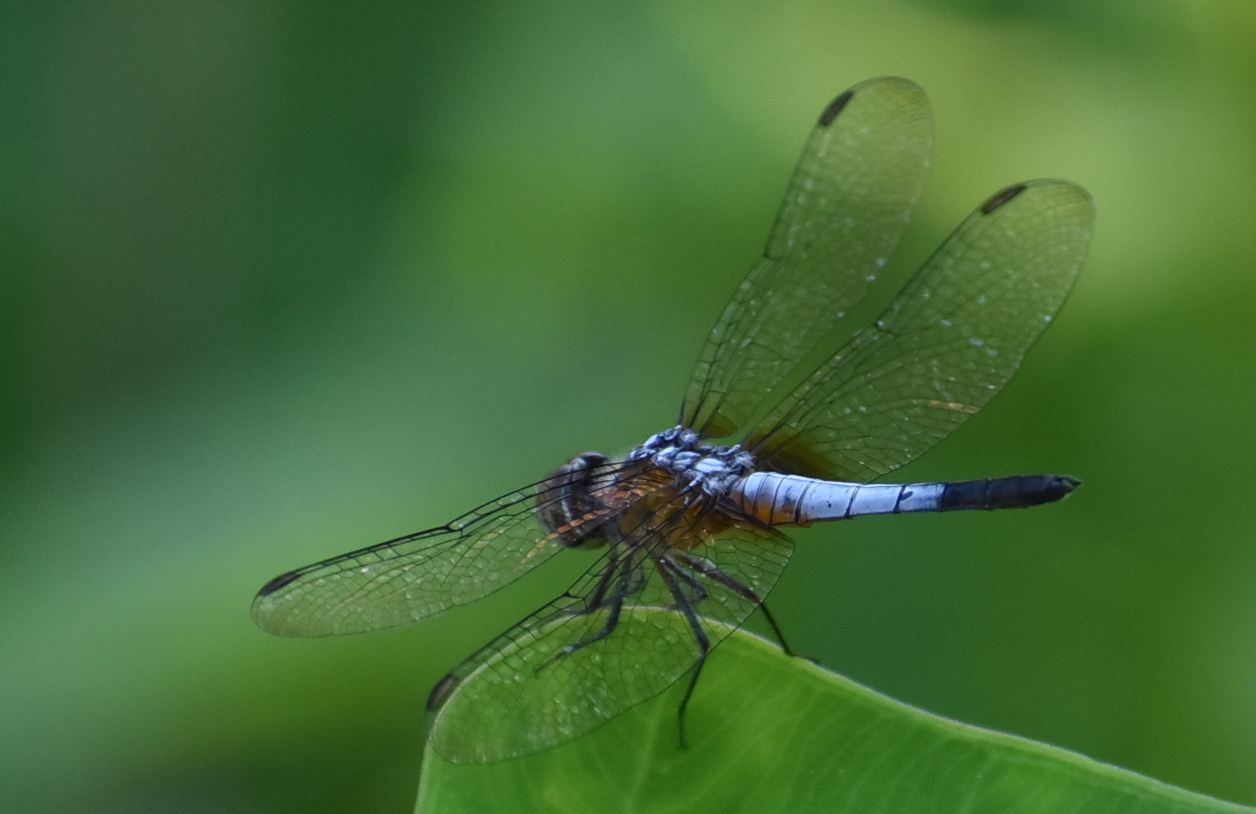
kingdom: Animalia
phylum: Arthropoda
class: Insecta
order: Odonata
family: Libellulidae
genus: Brachydiplax
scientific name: Brachydiplax chalybea
